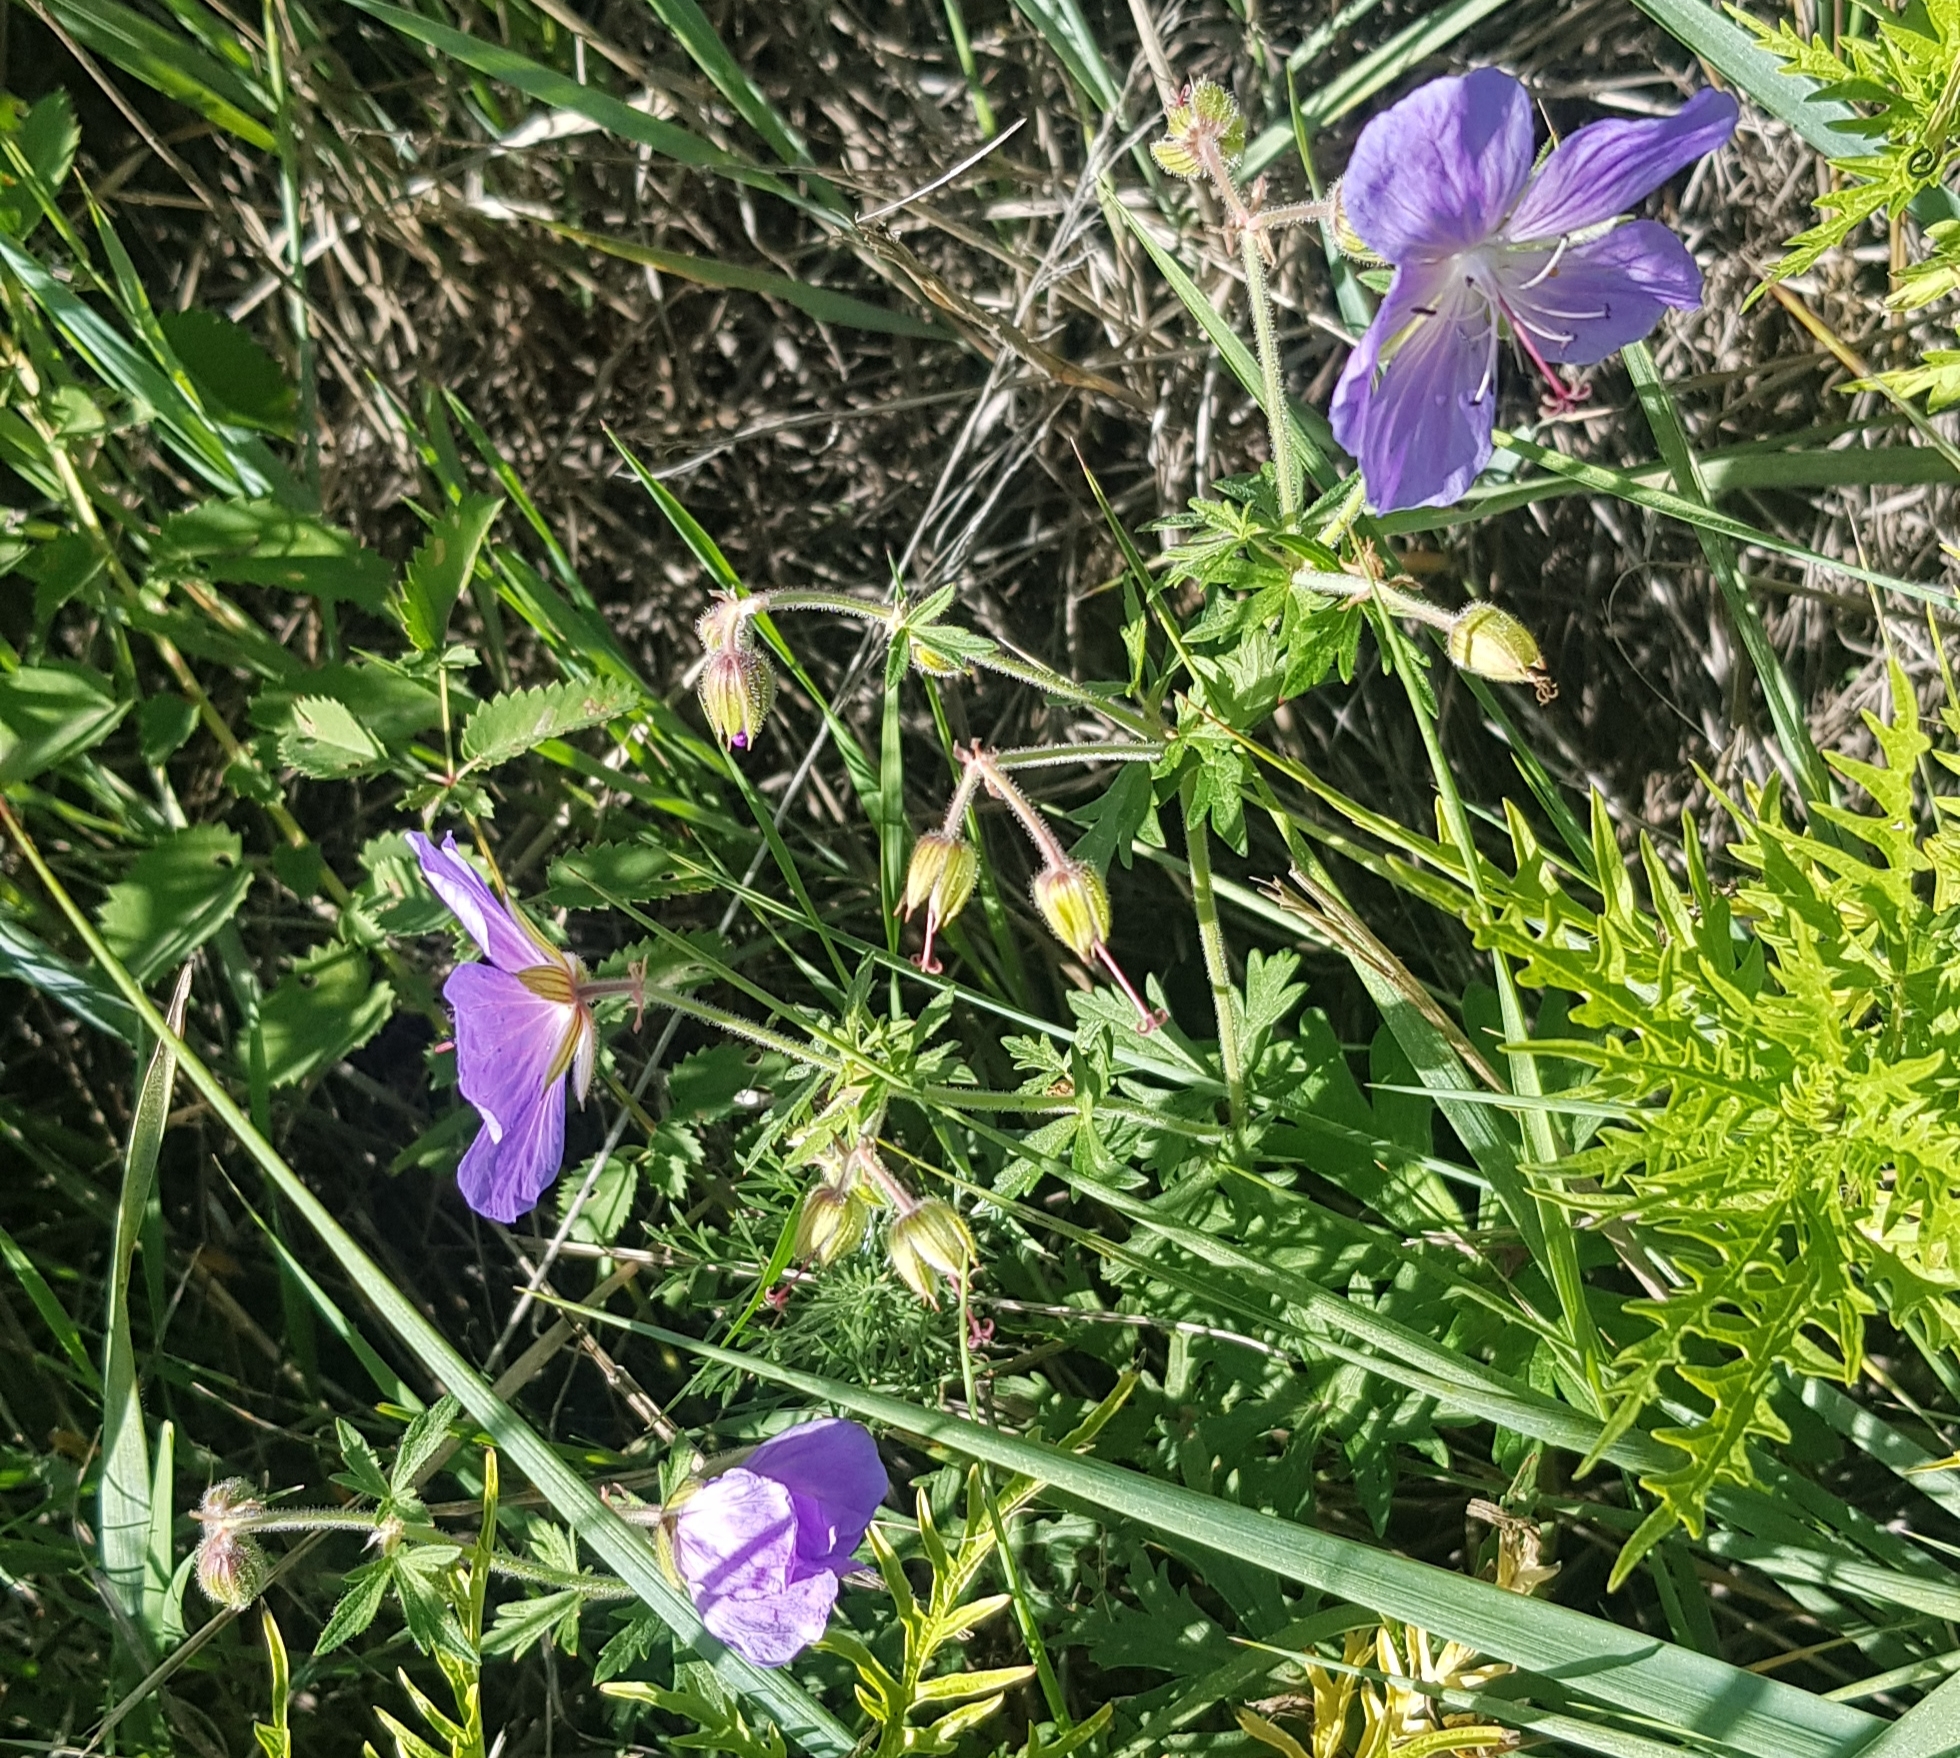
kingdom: Plantae
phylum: Tracheophyta
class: Magnoliopsida
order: Geraniales
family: Geraniaceae
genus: Geranium
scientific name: Geranium pratense
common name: Meadow crane's-bill
